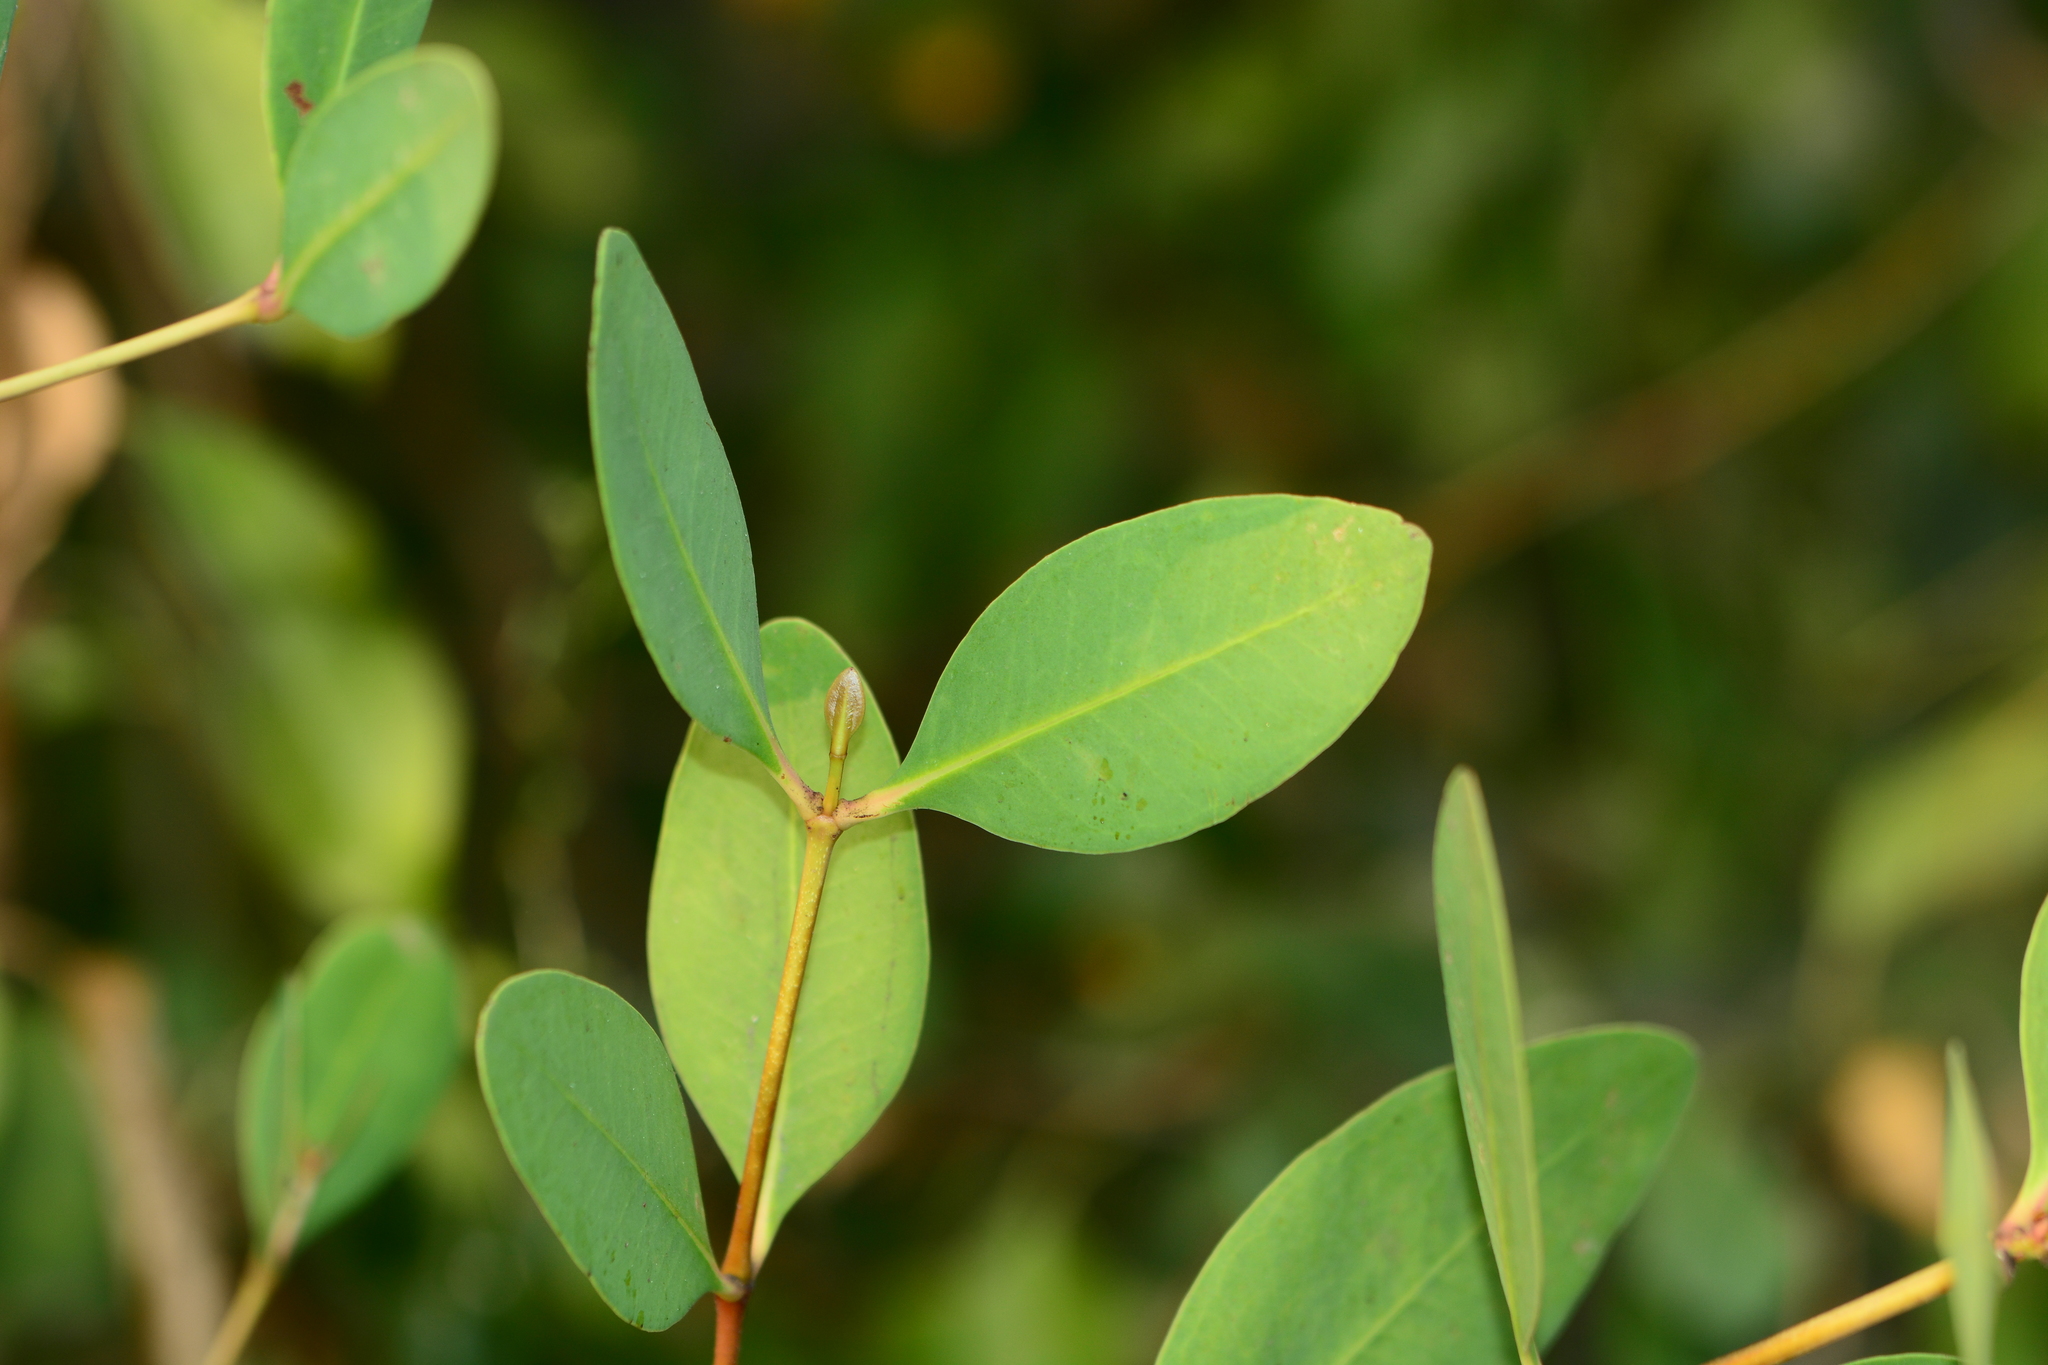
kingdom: Plantae
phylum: Tracheophyta
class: Magnoliopsida
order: Brassicales
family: Salvadoraceae
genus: Salvadora
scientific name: Salvadora persica
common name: Toothbrushtree
